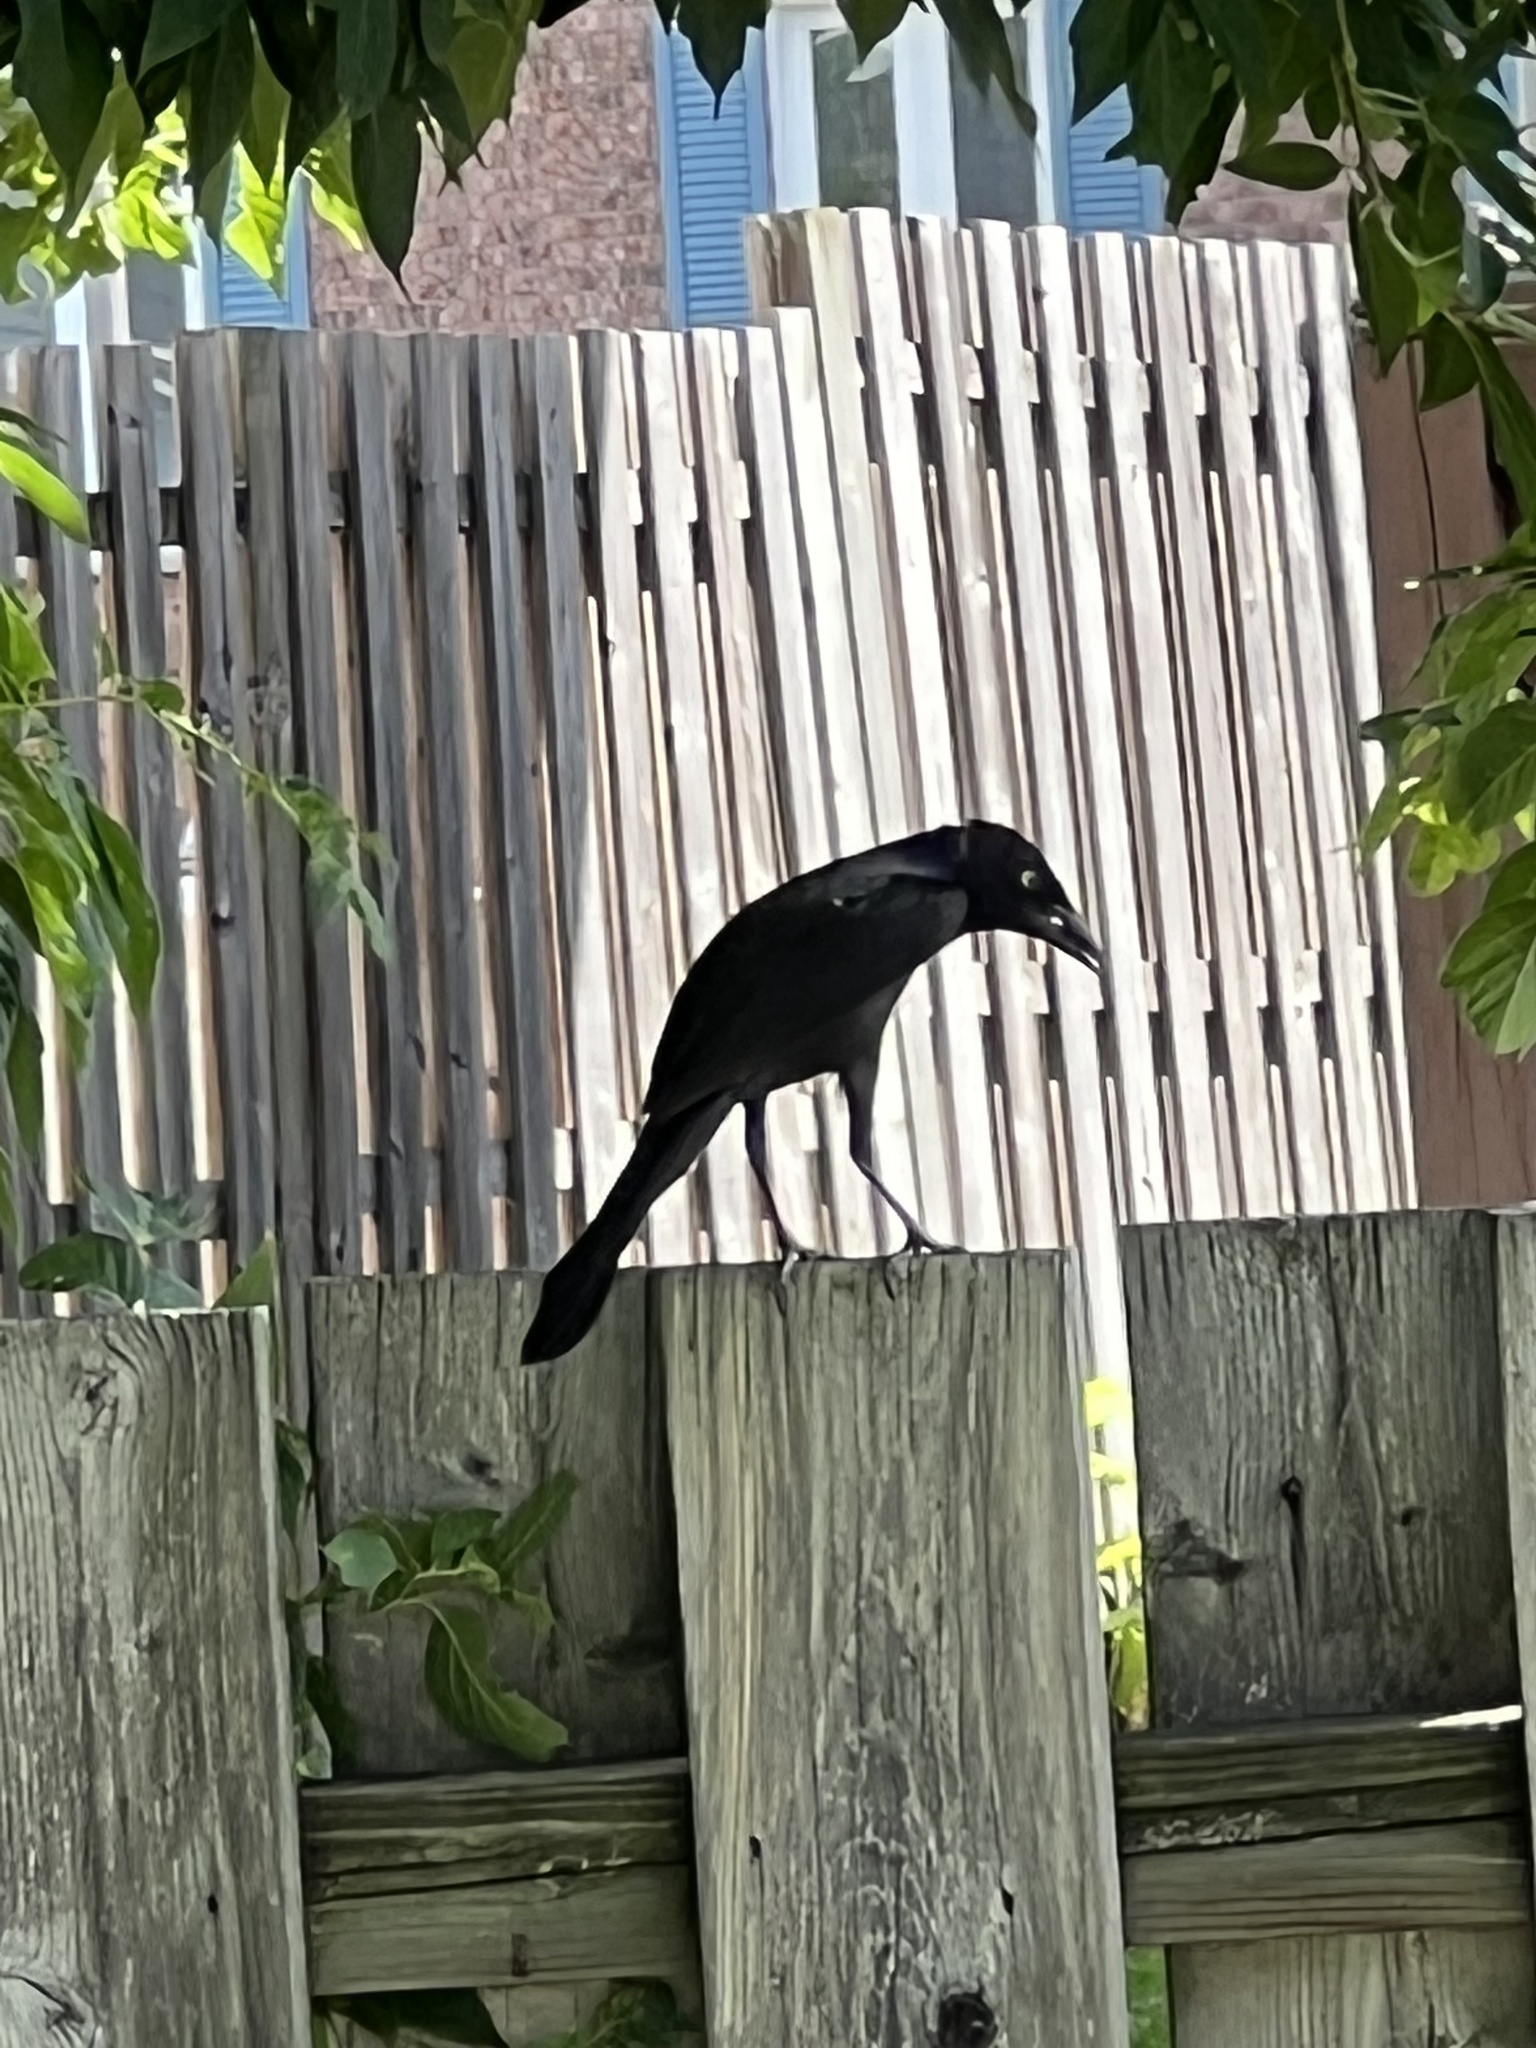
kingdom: Animalia
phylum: Chordata
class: Aves
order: Passeriformes
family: Icteridae
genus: Quiscalus
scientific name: Quiscalus quiscula
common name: Common grackle
